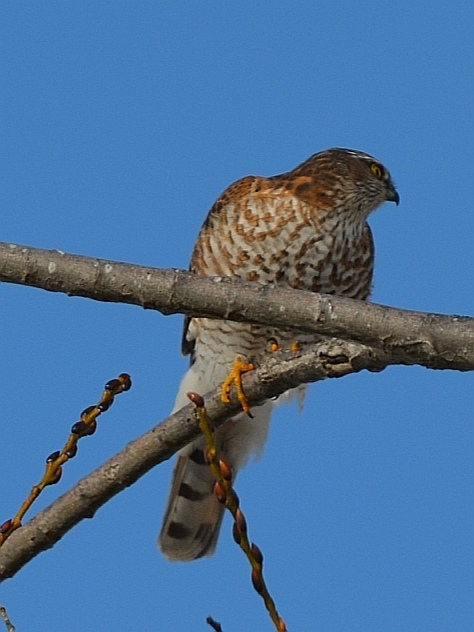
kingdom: Animalia
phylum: Chordata
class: Aves
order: Accipitriformes
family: Accipitridae
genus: Accipiter
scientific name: Accipiter nisus
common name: Eurasian sparrowhawk
